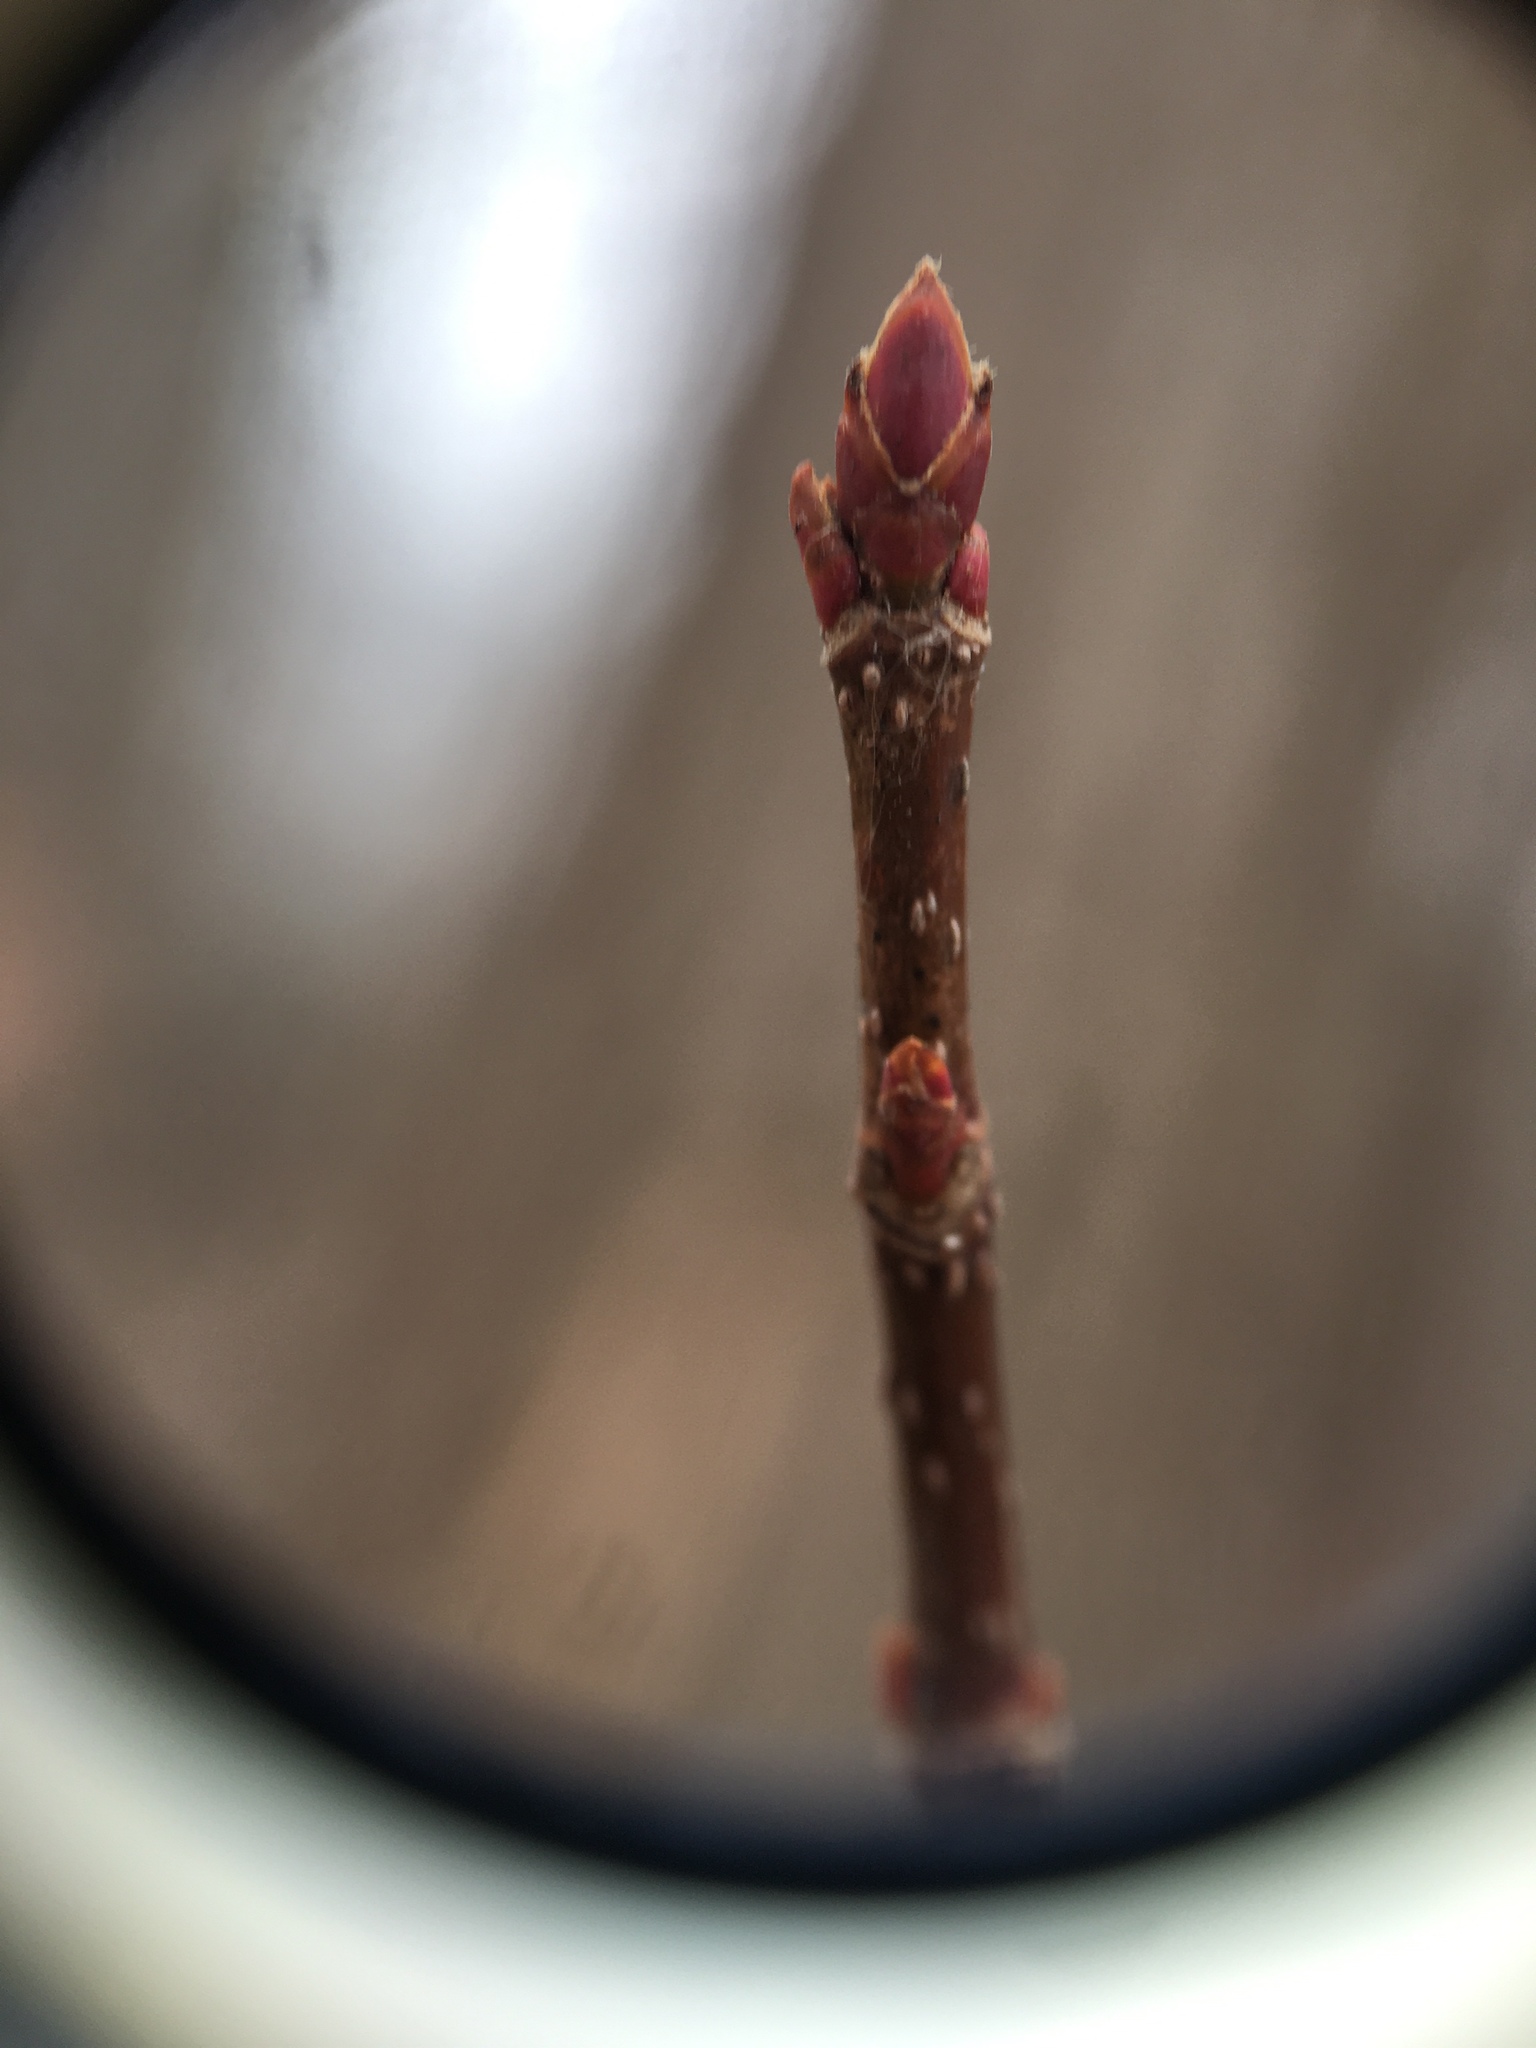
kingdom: Plantae
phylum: Tracheophyta
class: Magnoliopsida
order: Sapindales
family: Sapindaceae
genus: Acer
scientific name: Acer rubrum
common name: Red maple
